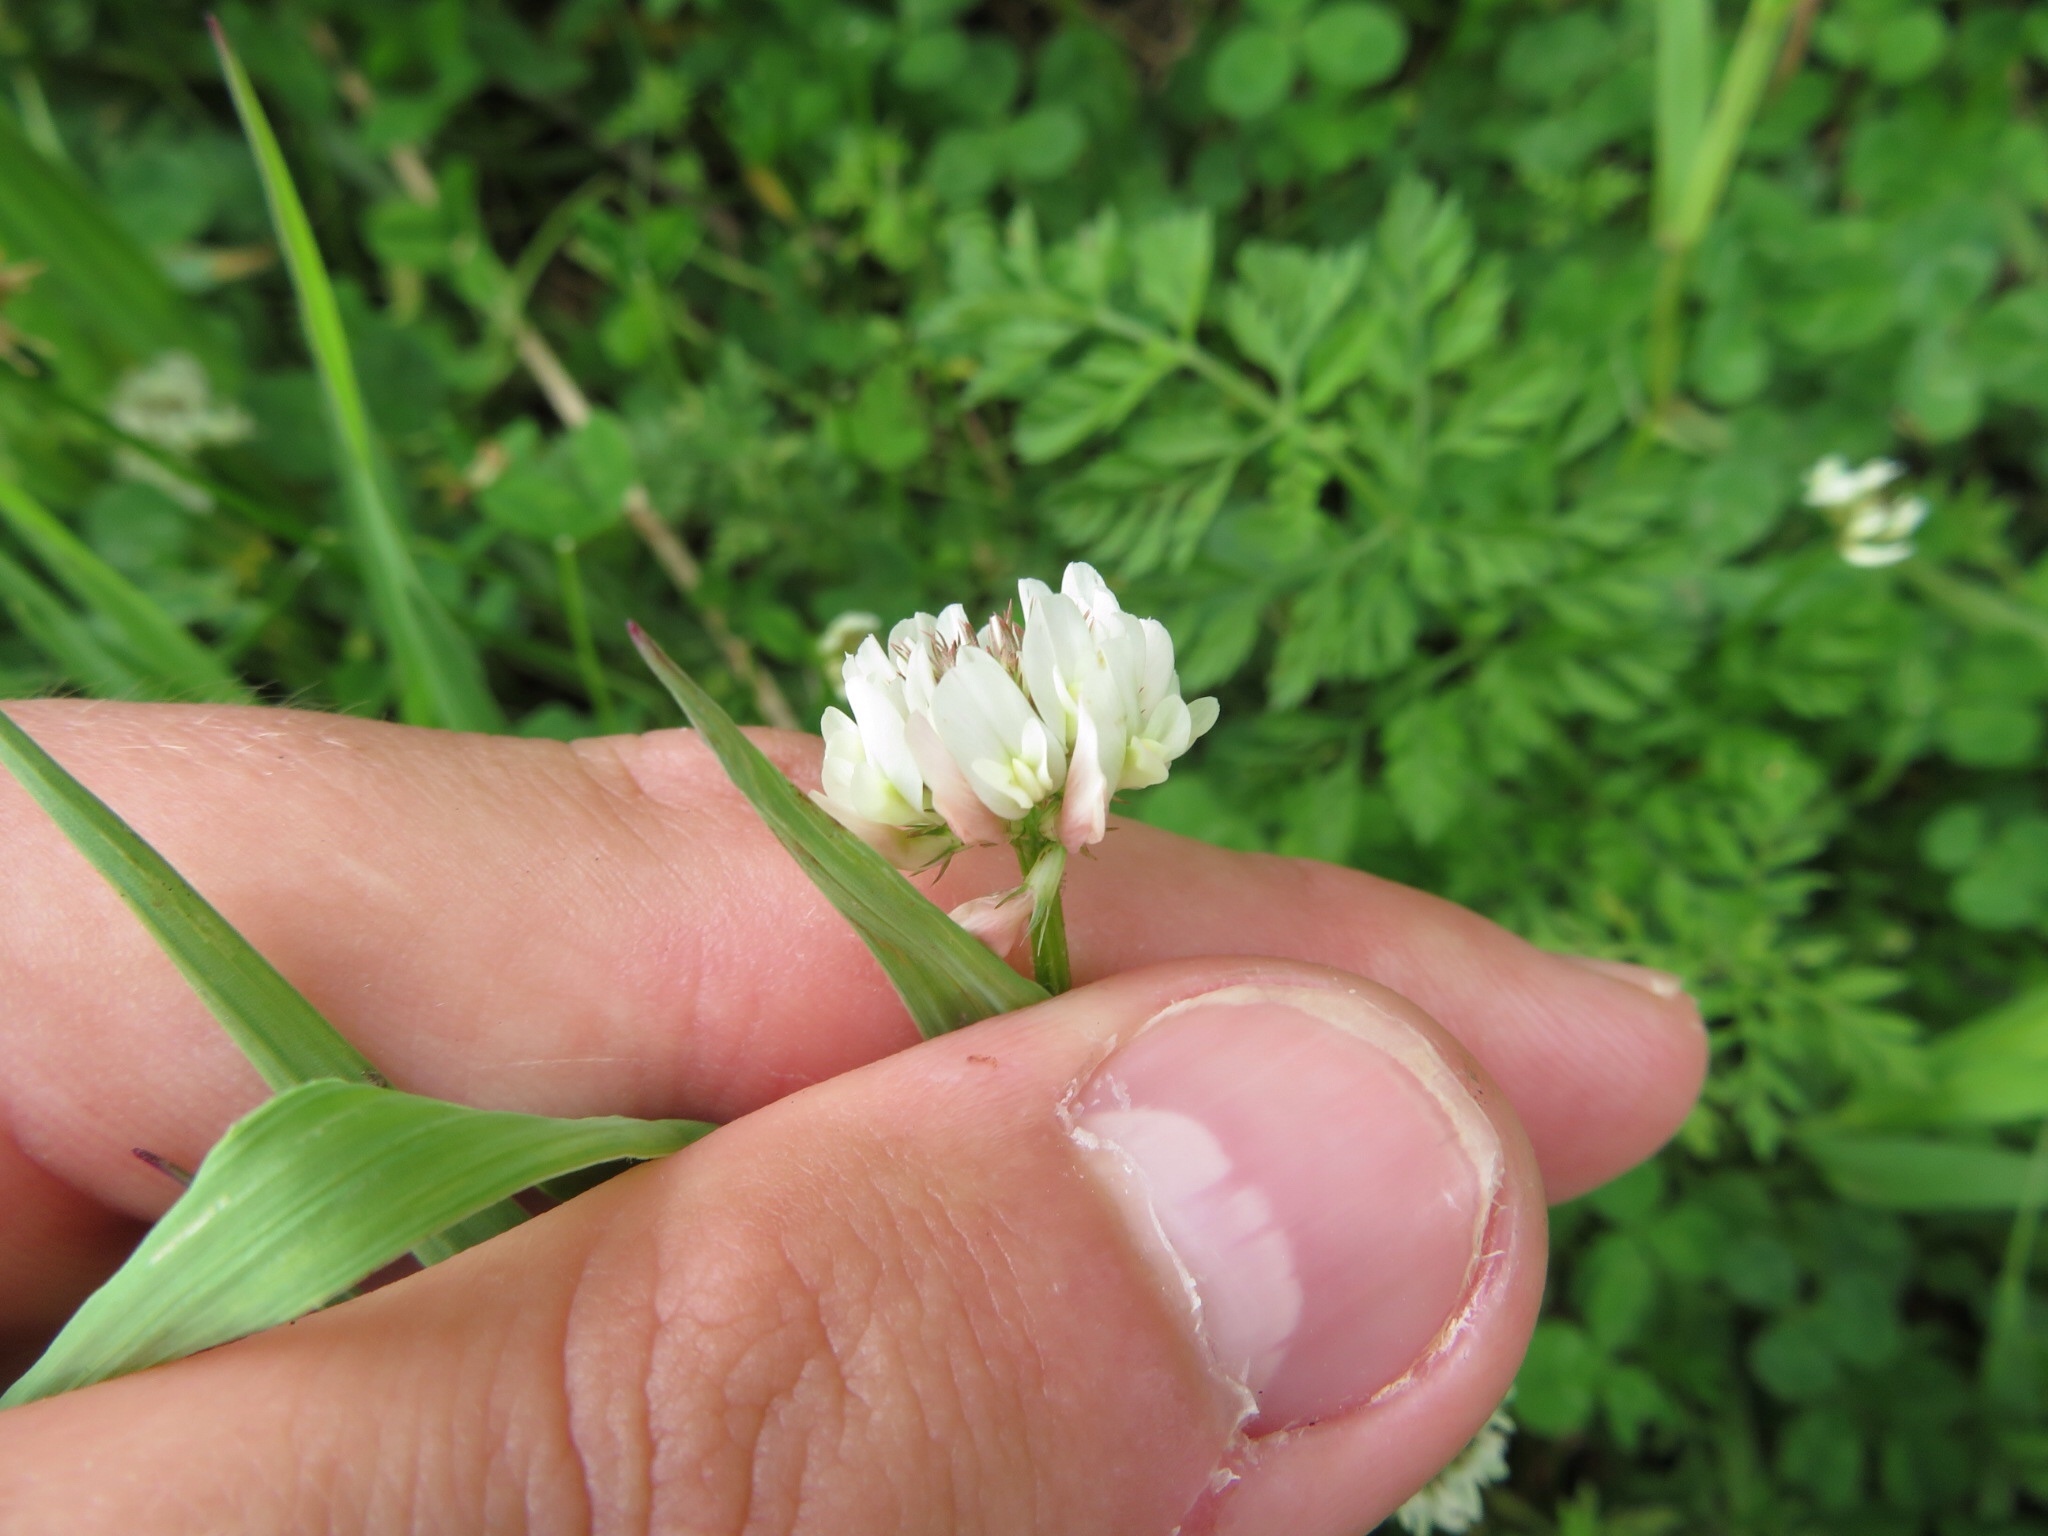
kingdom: Plantae
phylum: Tracheophyta
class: Magnoliopsida
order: Fabales
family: Fabaceae
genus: Trifolium
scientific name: Trifolium repens
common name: White clover
